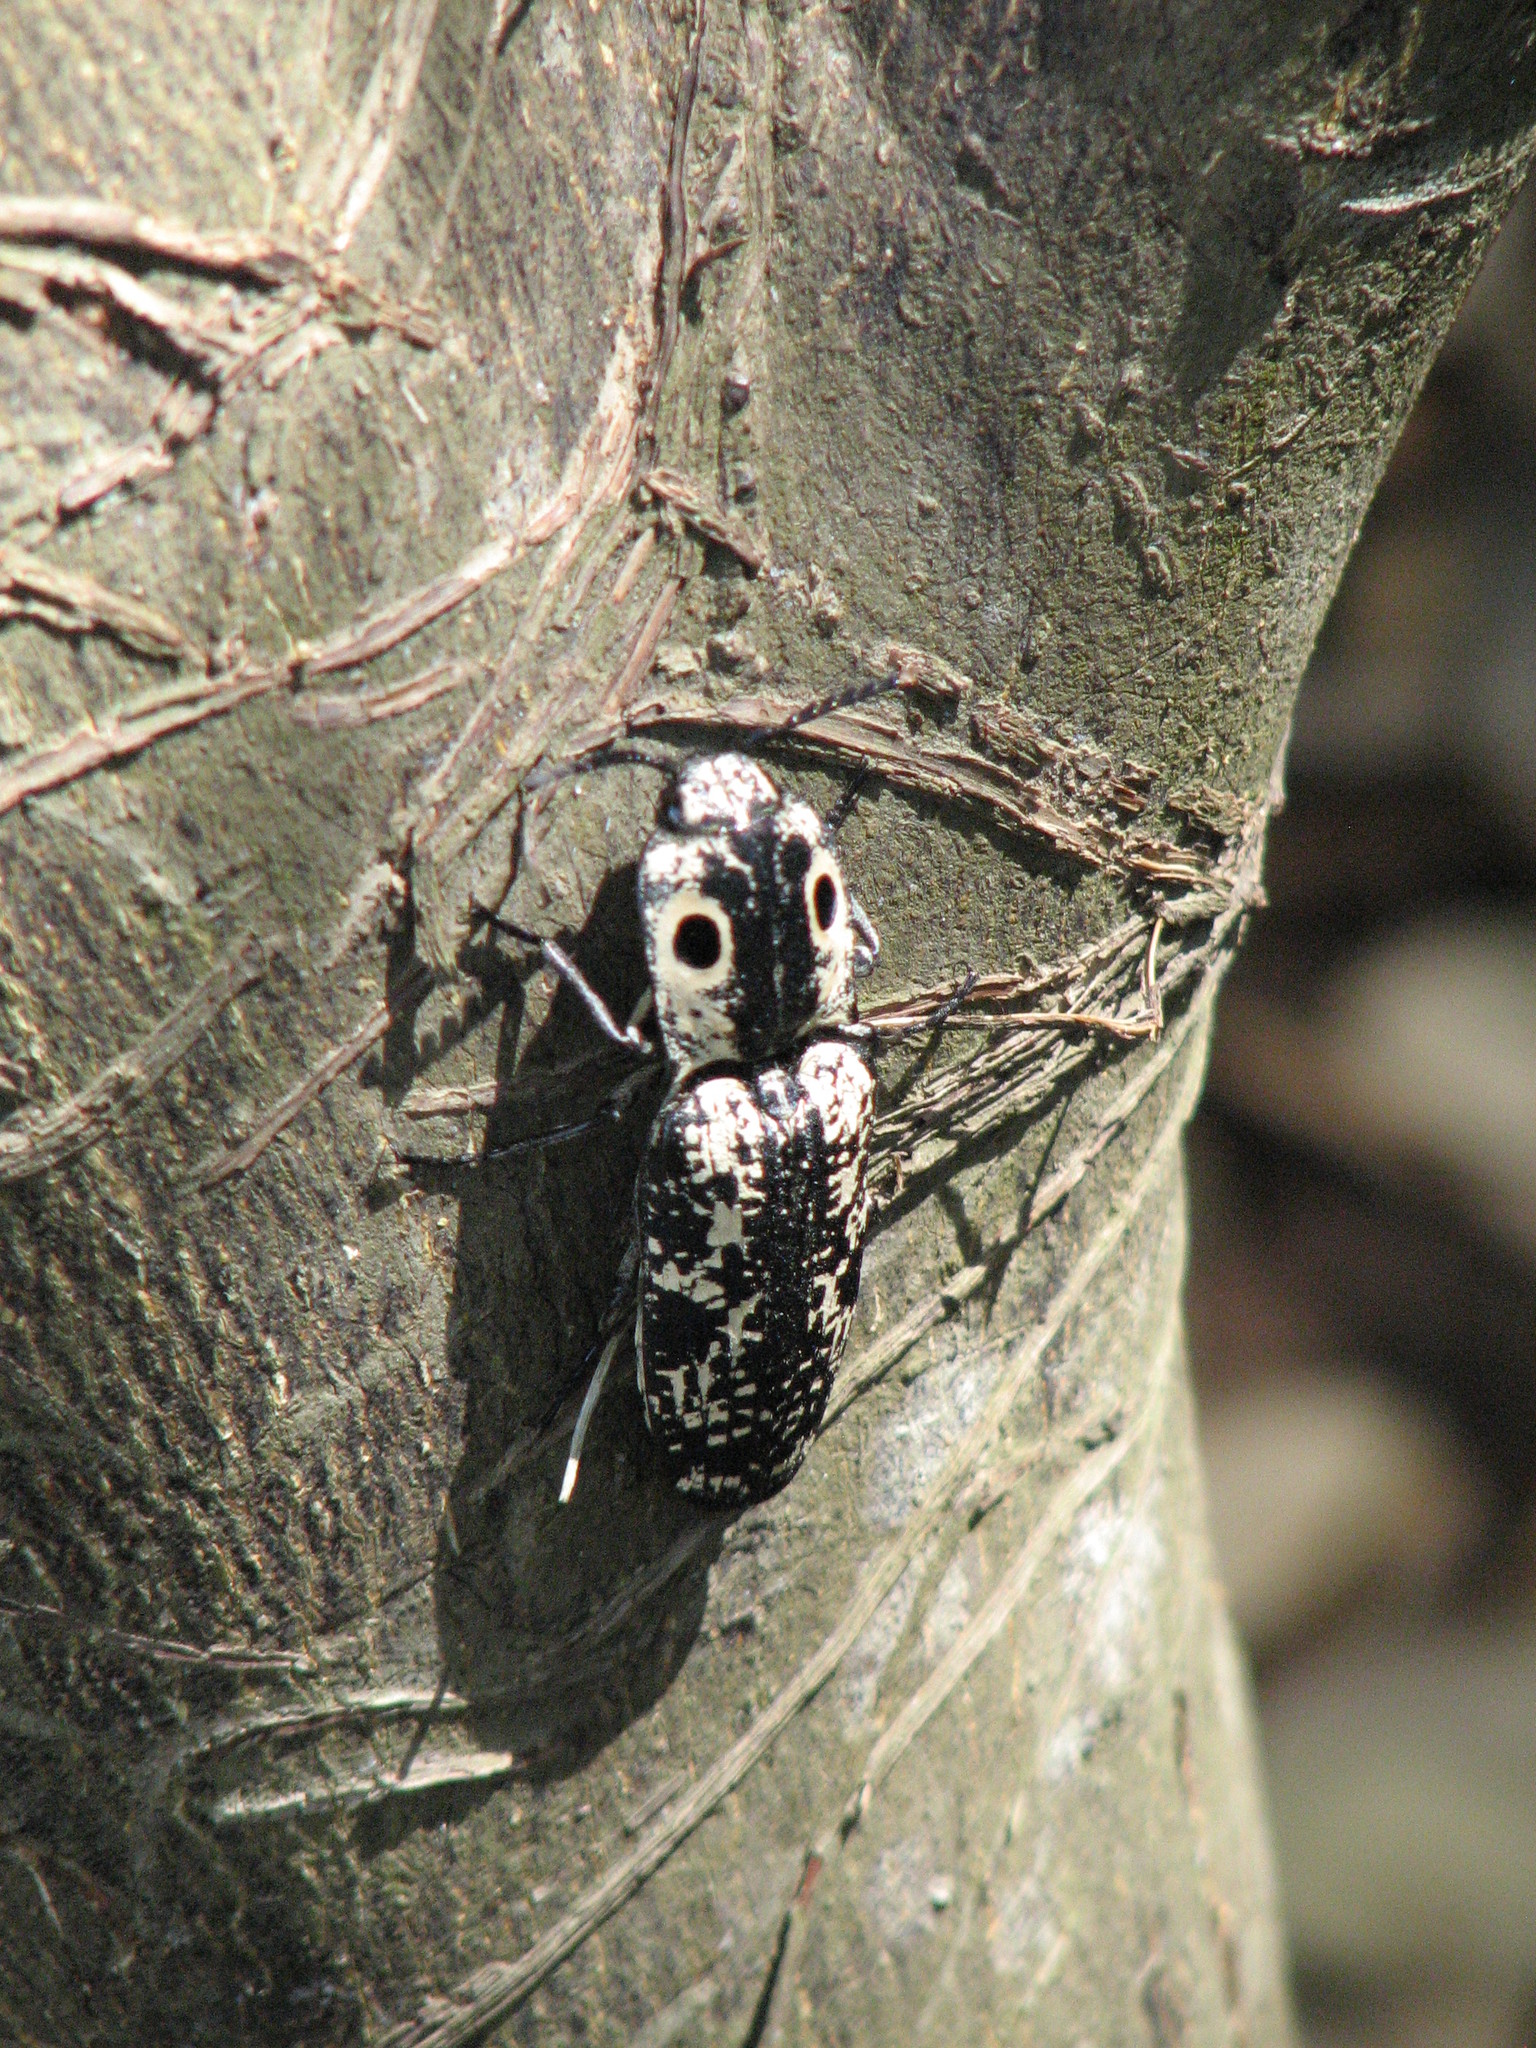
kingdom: Animalia
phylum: Arthropoda
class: Insecta
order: Coleoptera
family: Elateridae
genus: Alaus
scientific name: Alaus
